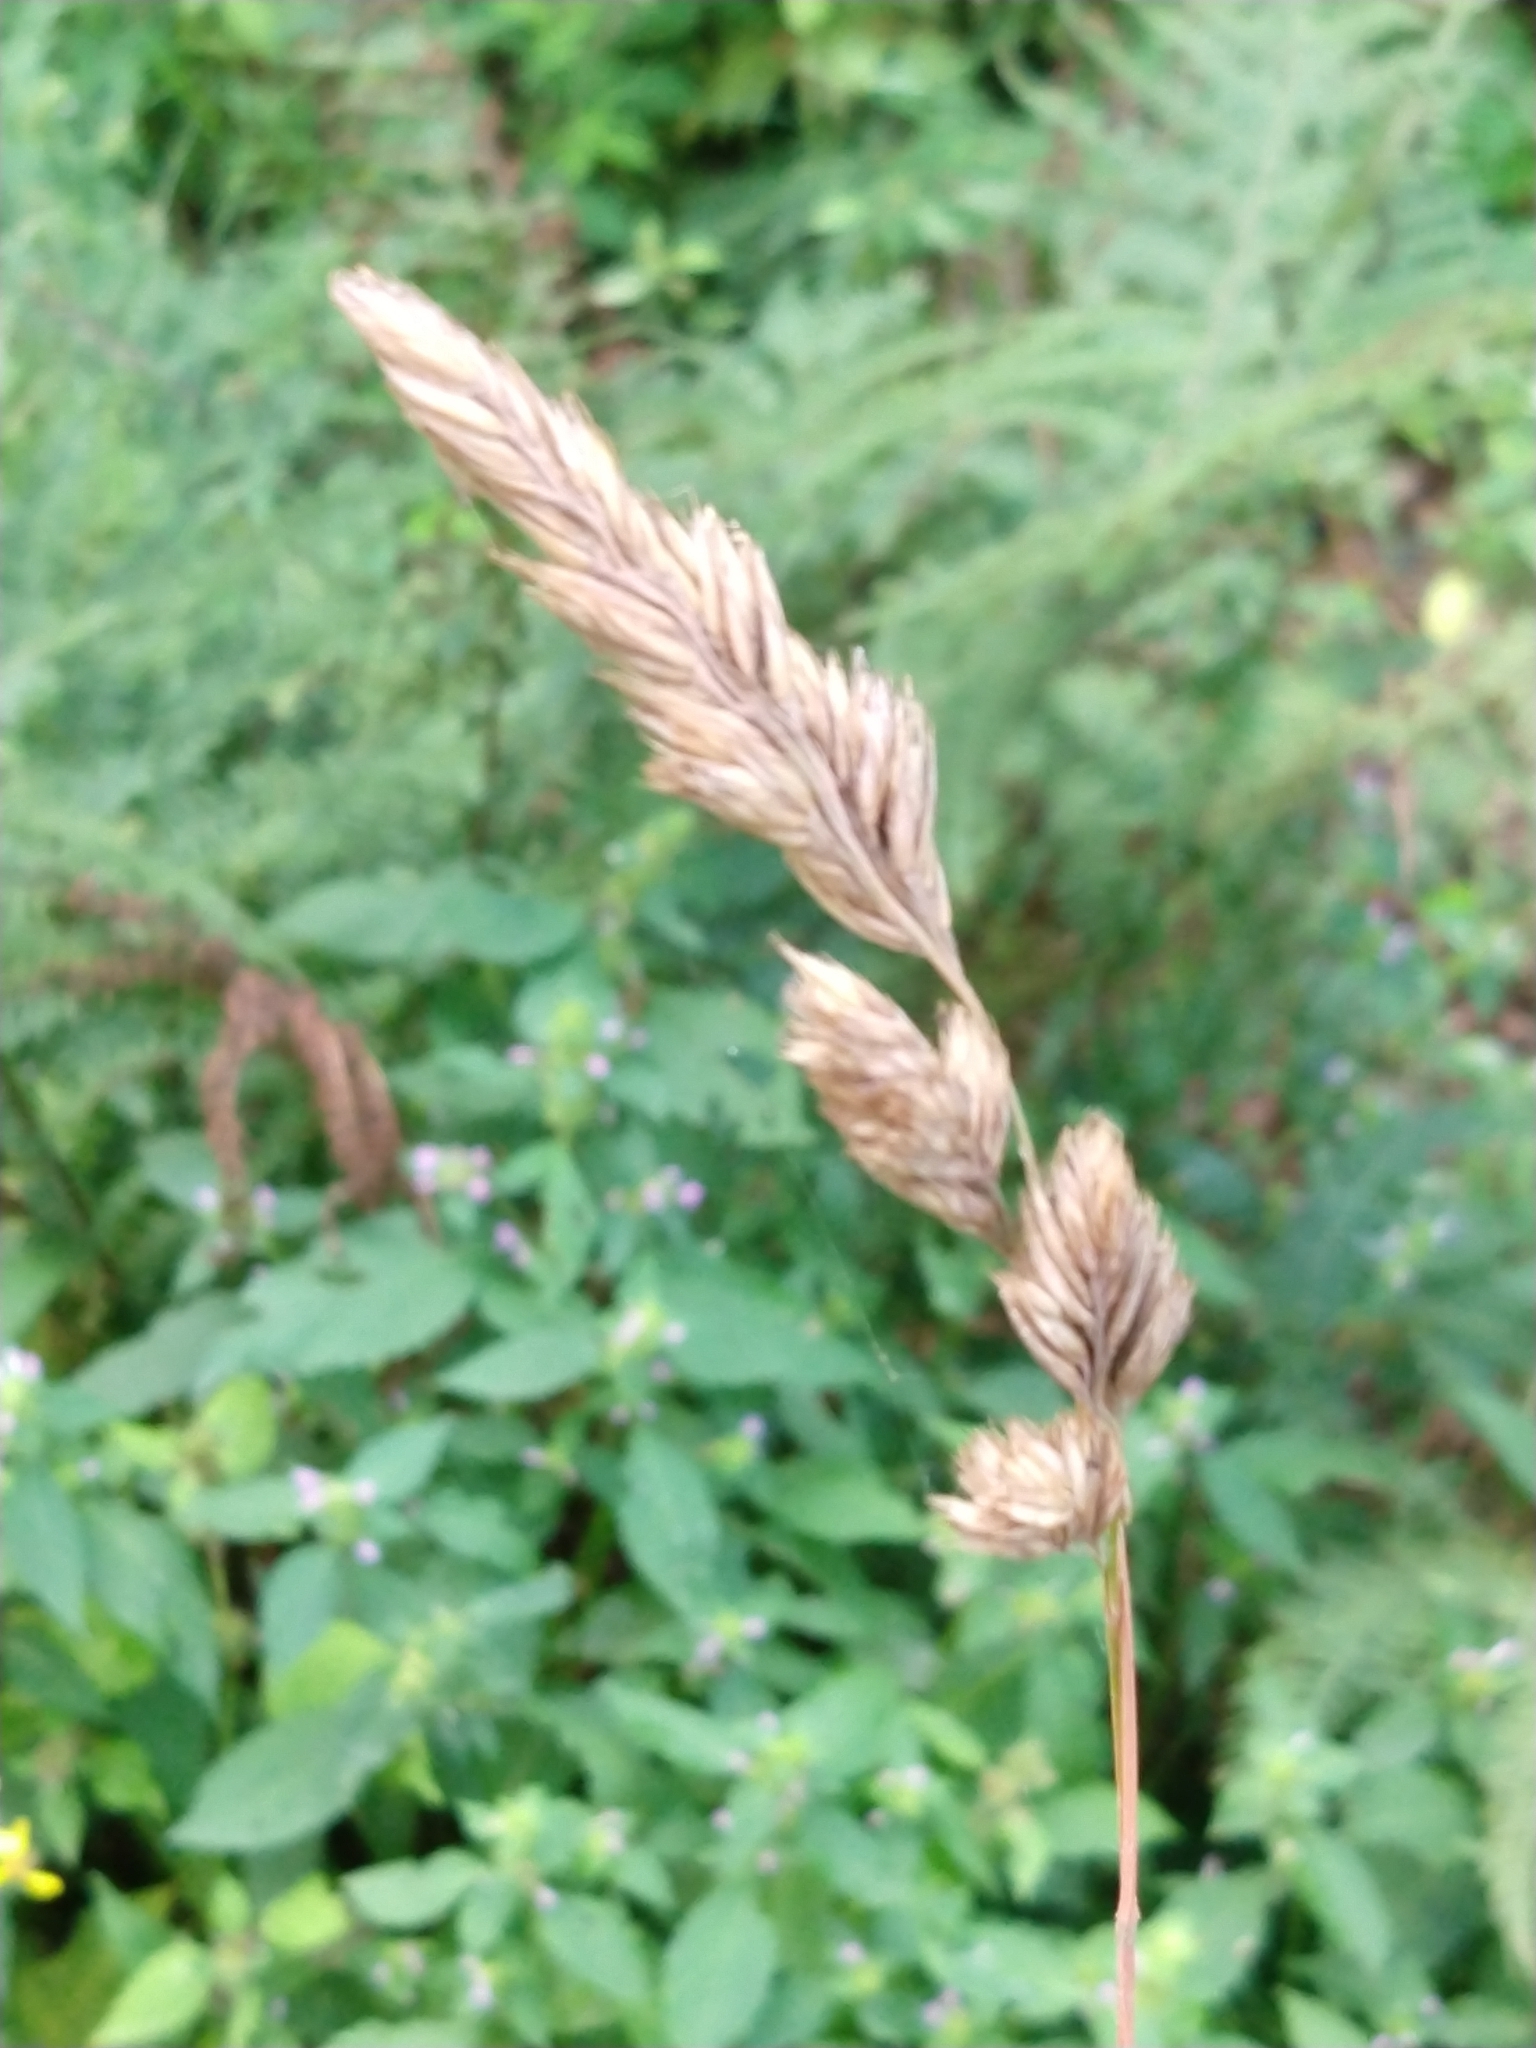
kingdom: Plantae
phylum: Tracheophyta
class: Liliopsida
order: Poales
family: Poaceae
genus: Dactylis
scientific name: Dactylis glomerata
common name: Orchardgrass
